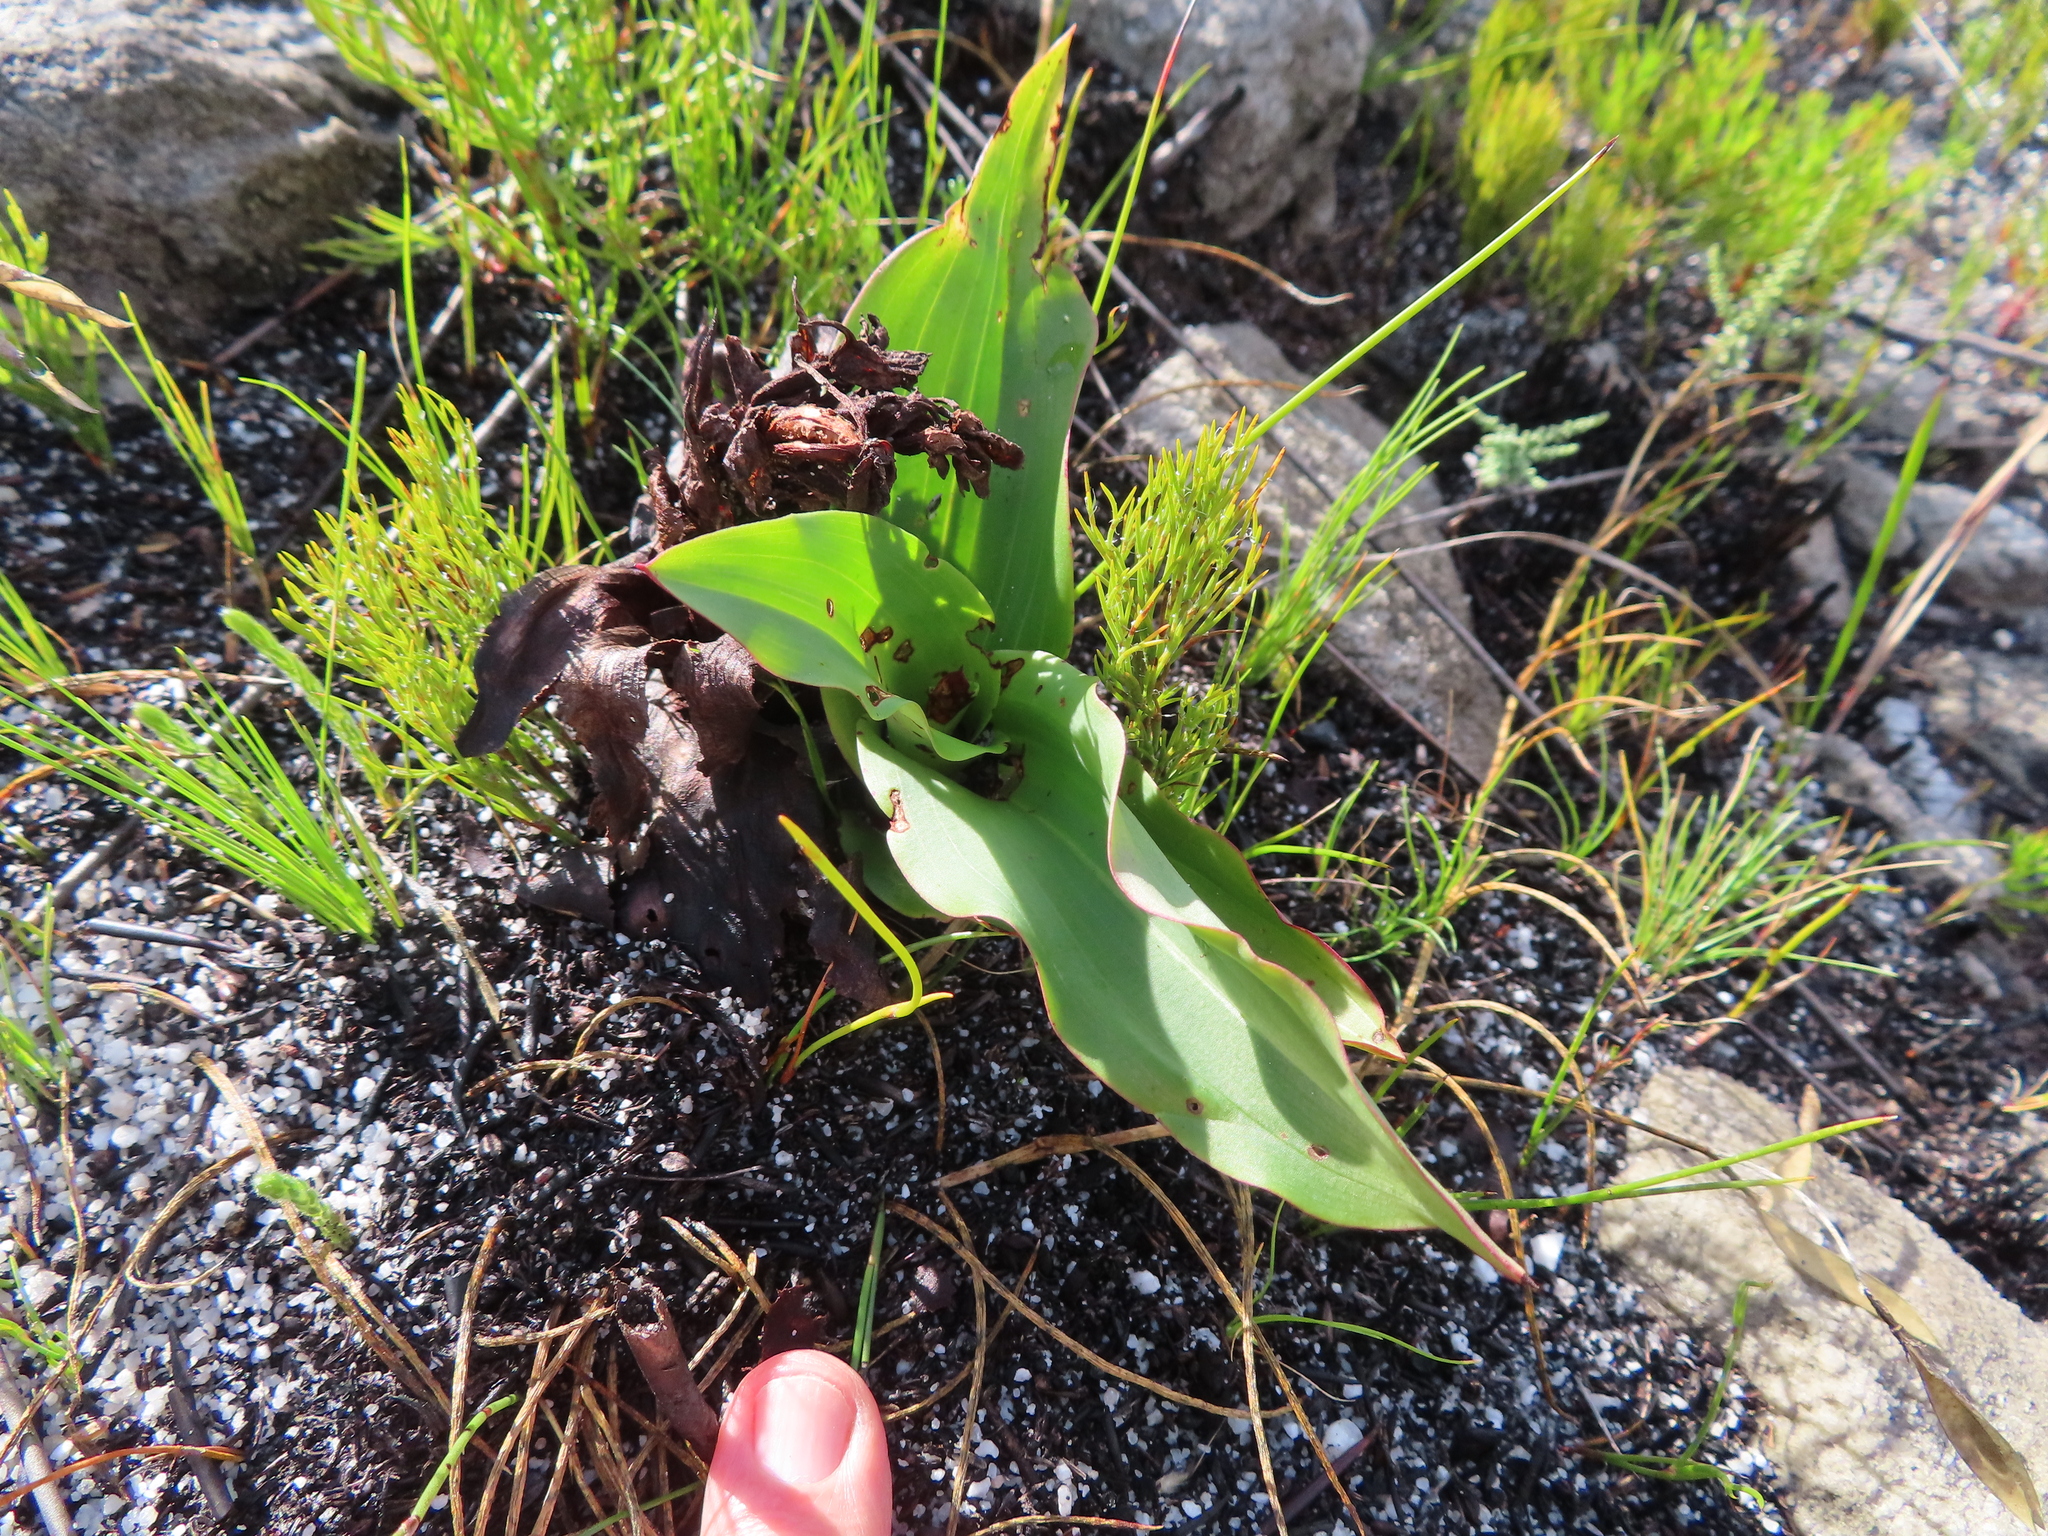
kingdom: Plantae
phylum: Tracheophyta
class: Liliopsida
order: Asparagales
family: Orchidaceae
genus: Disa
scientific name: Disa cornuta
